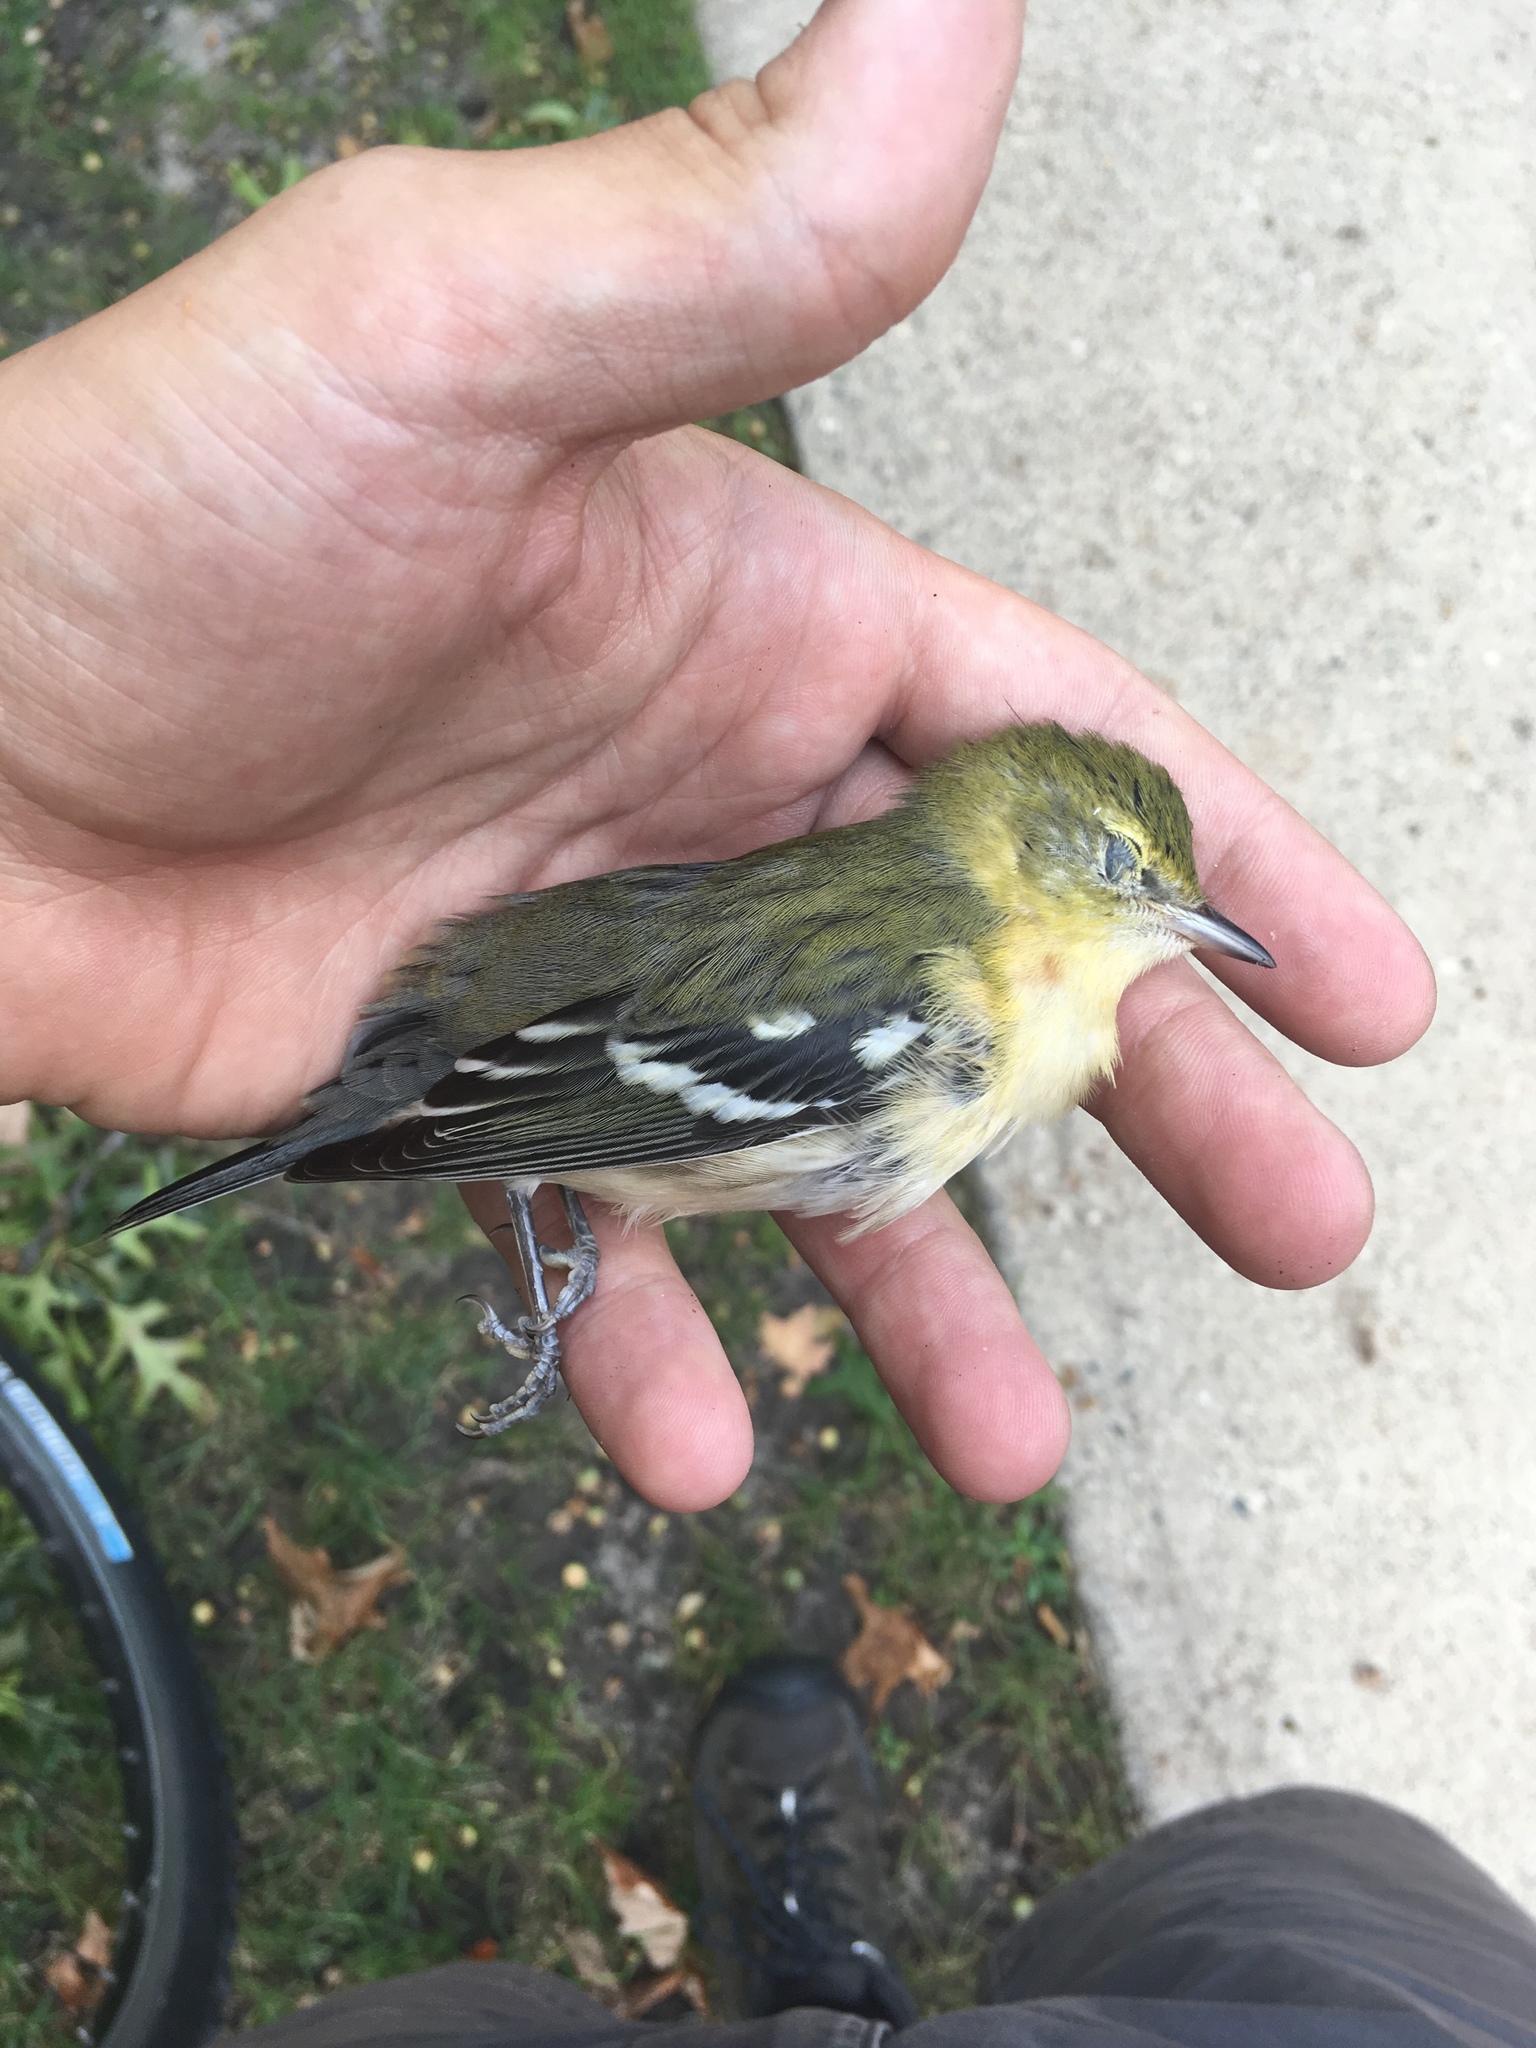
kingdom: Animalia
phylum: Chordata
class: Aves
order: Passeriformes
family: Parulidae
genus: Setophaga
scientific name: Setophaga castanea
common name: Bay-breasted warbler
